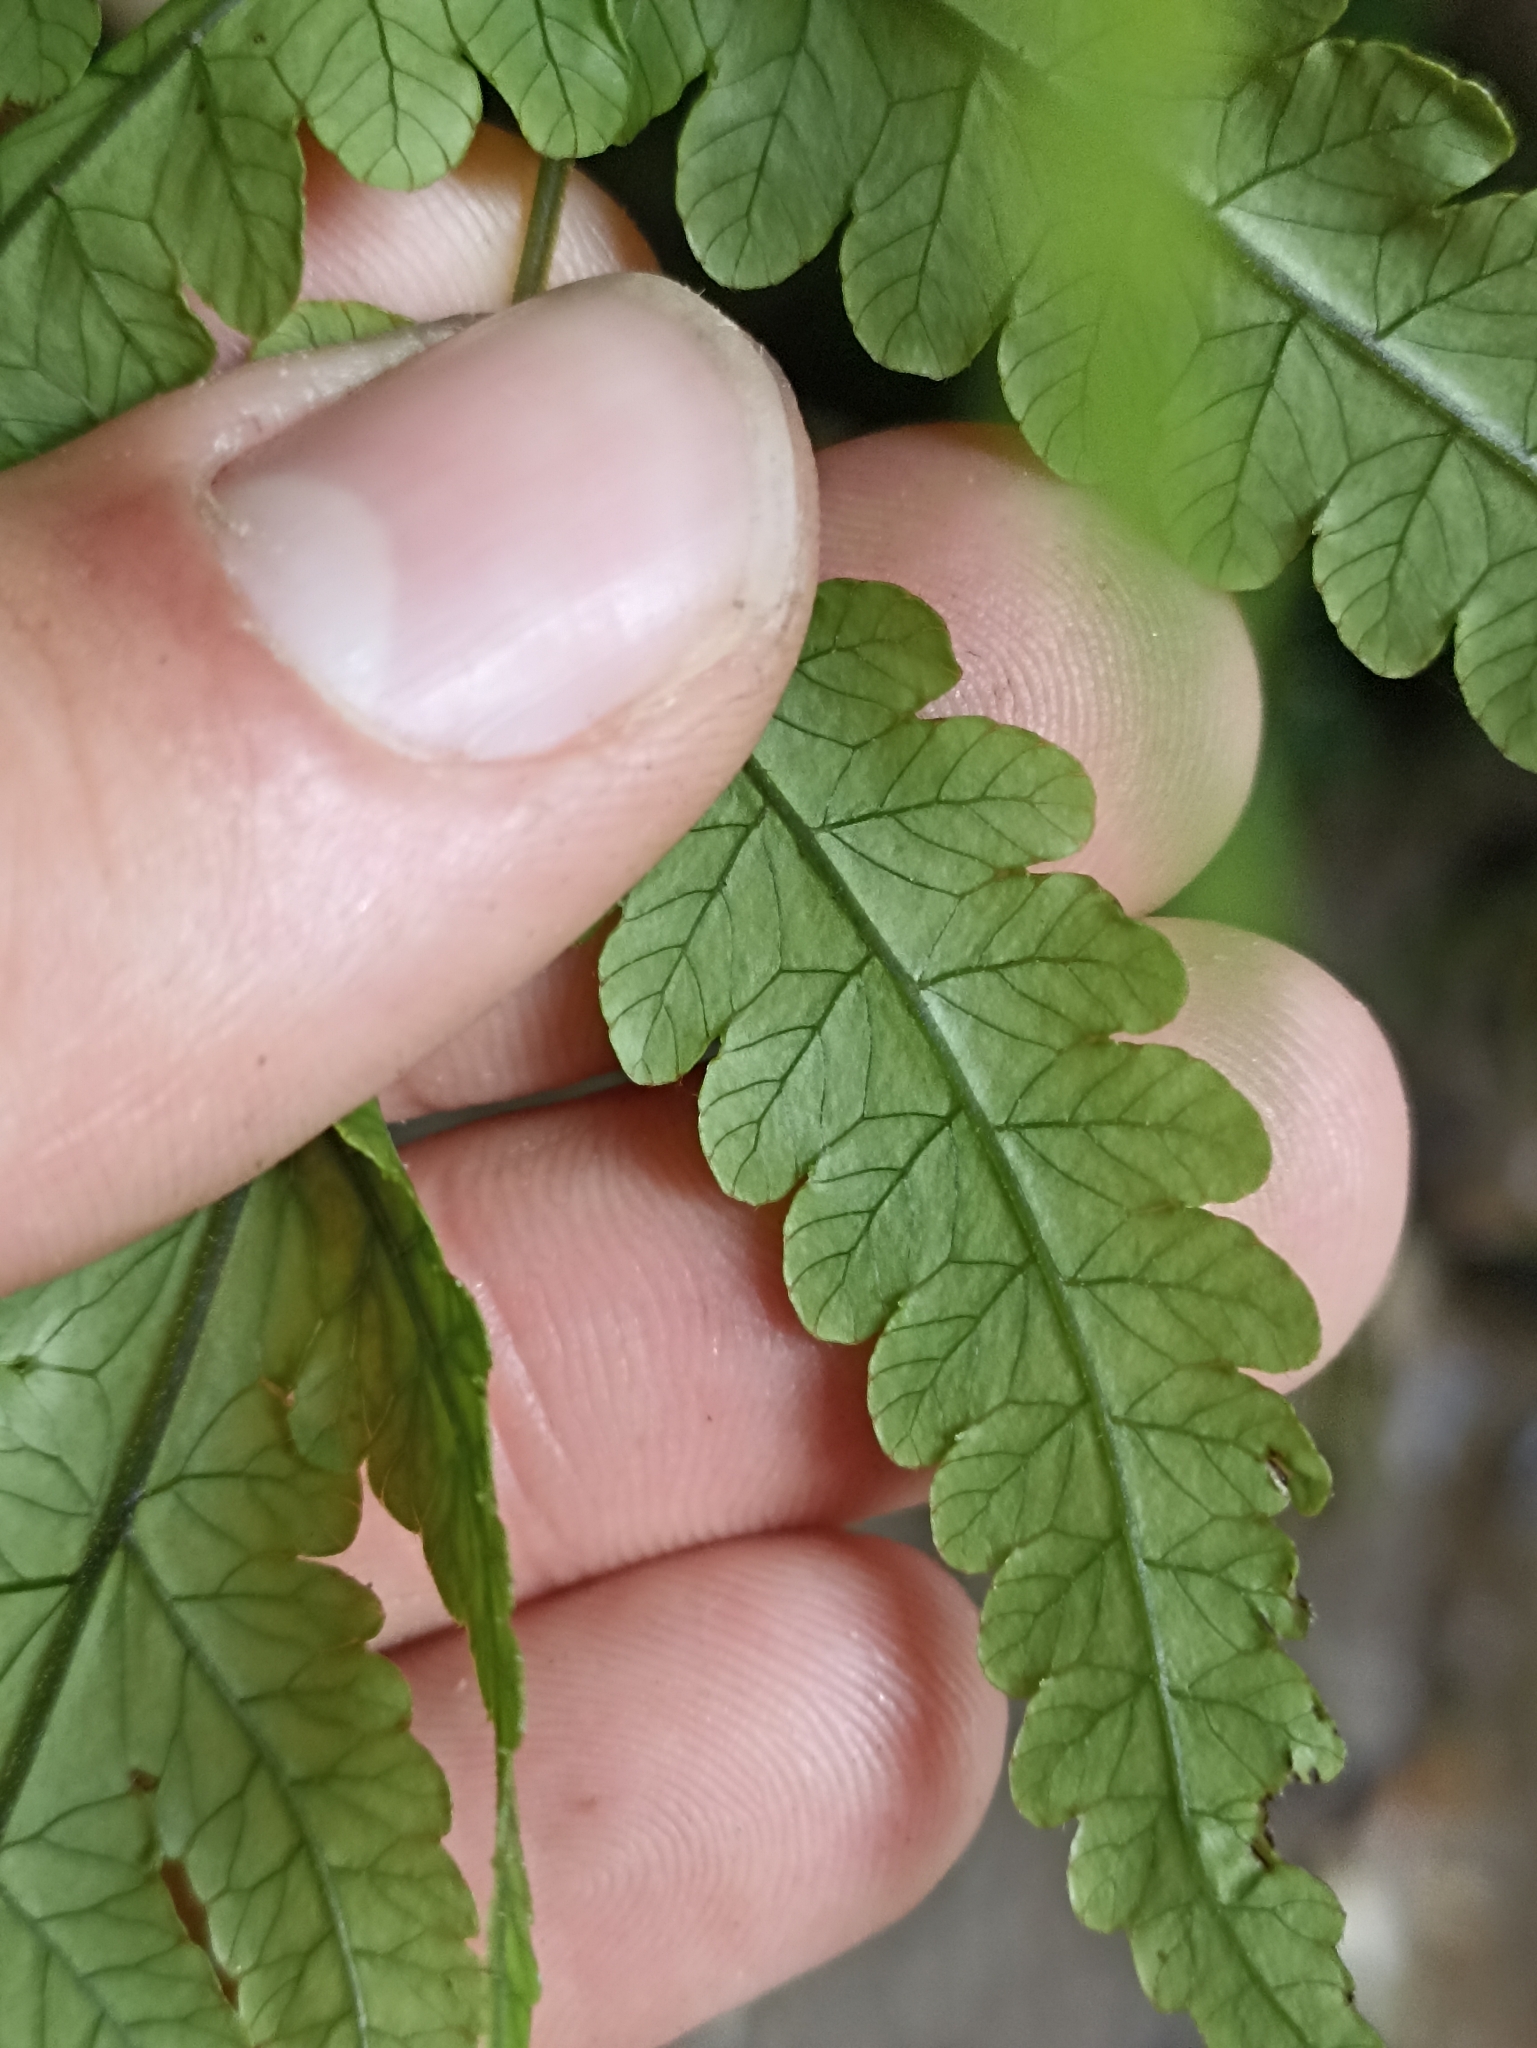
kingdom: Plantae
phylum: Tracheophyta
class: Polypodiopsida
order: Polypodiales
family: Thelypteridaceae
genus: Pakau
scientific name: Pakau pennigera
